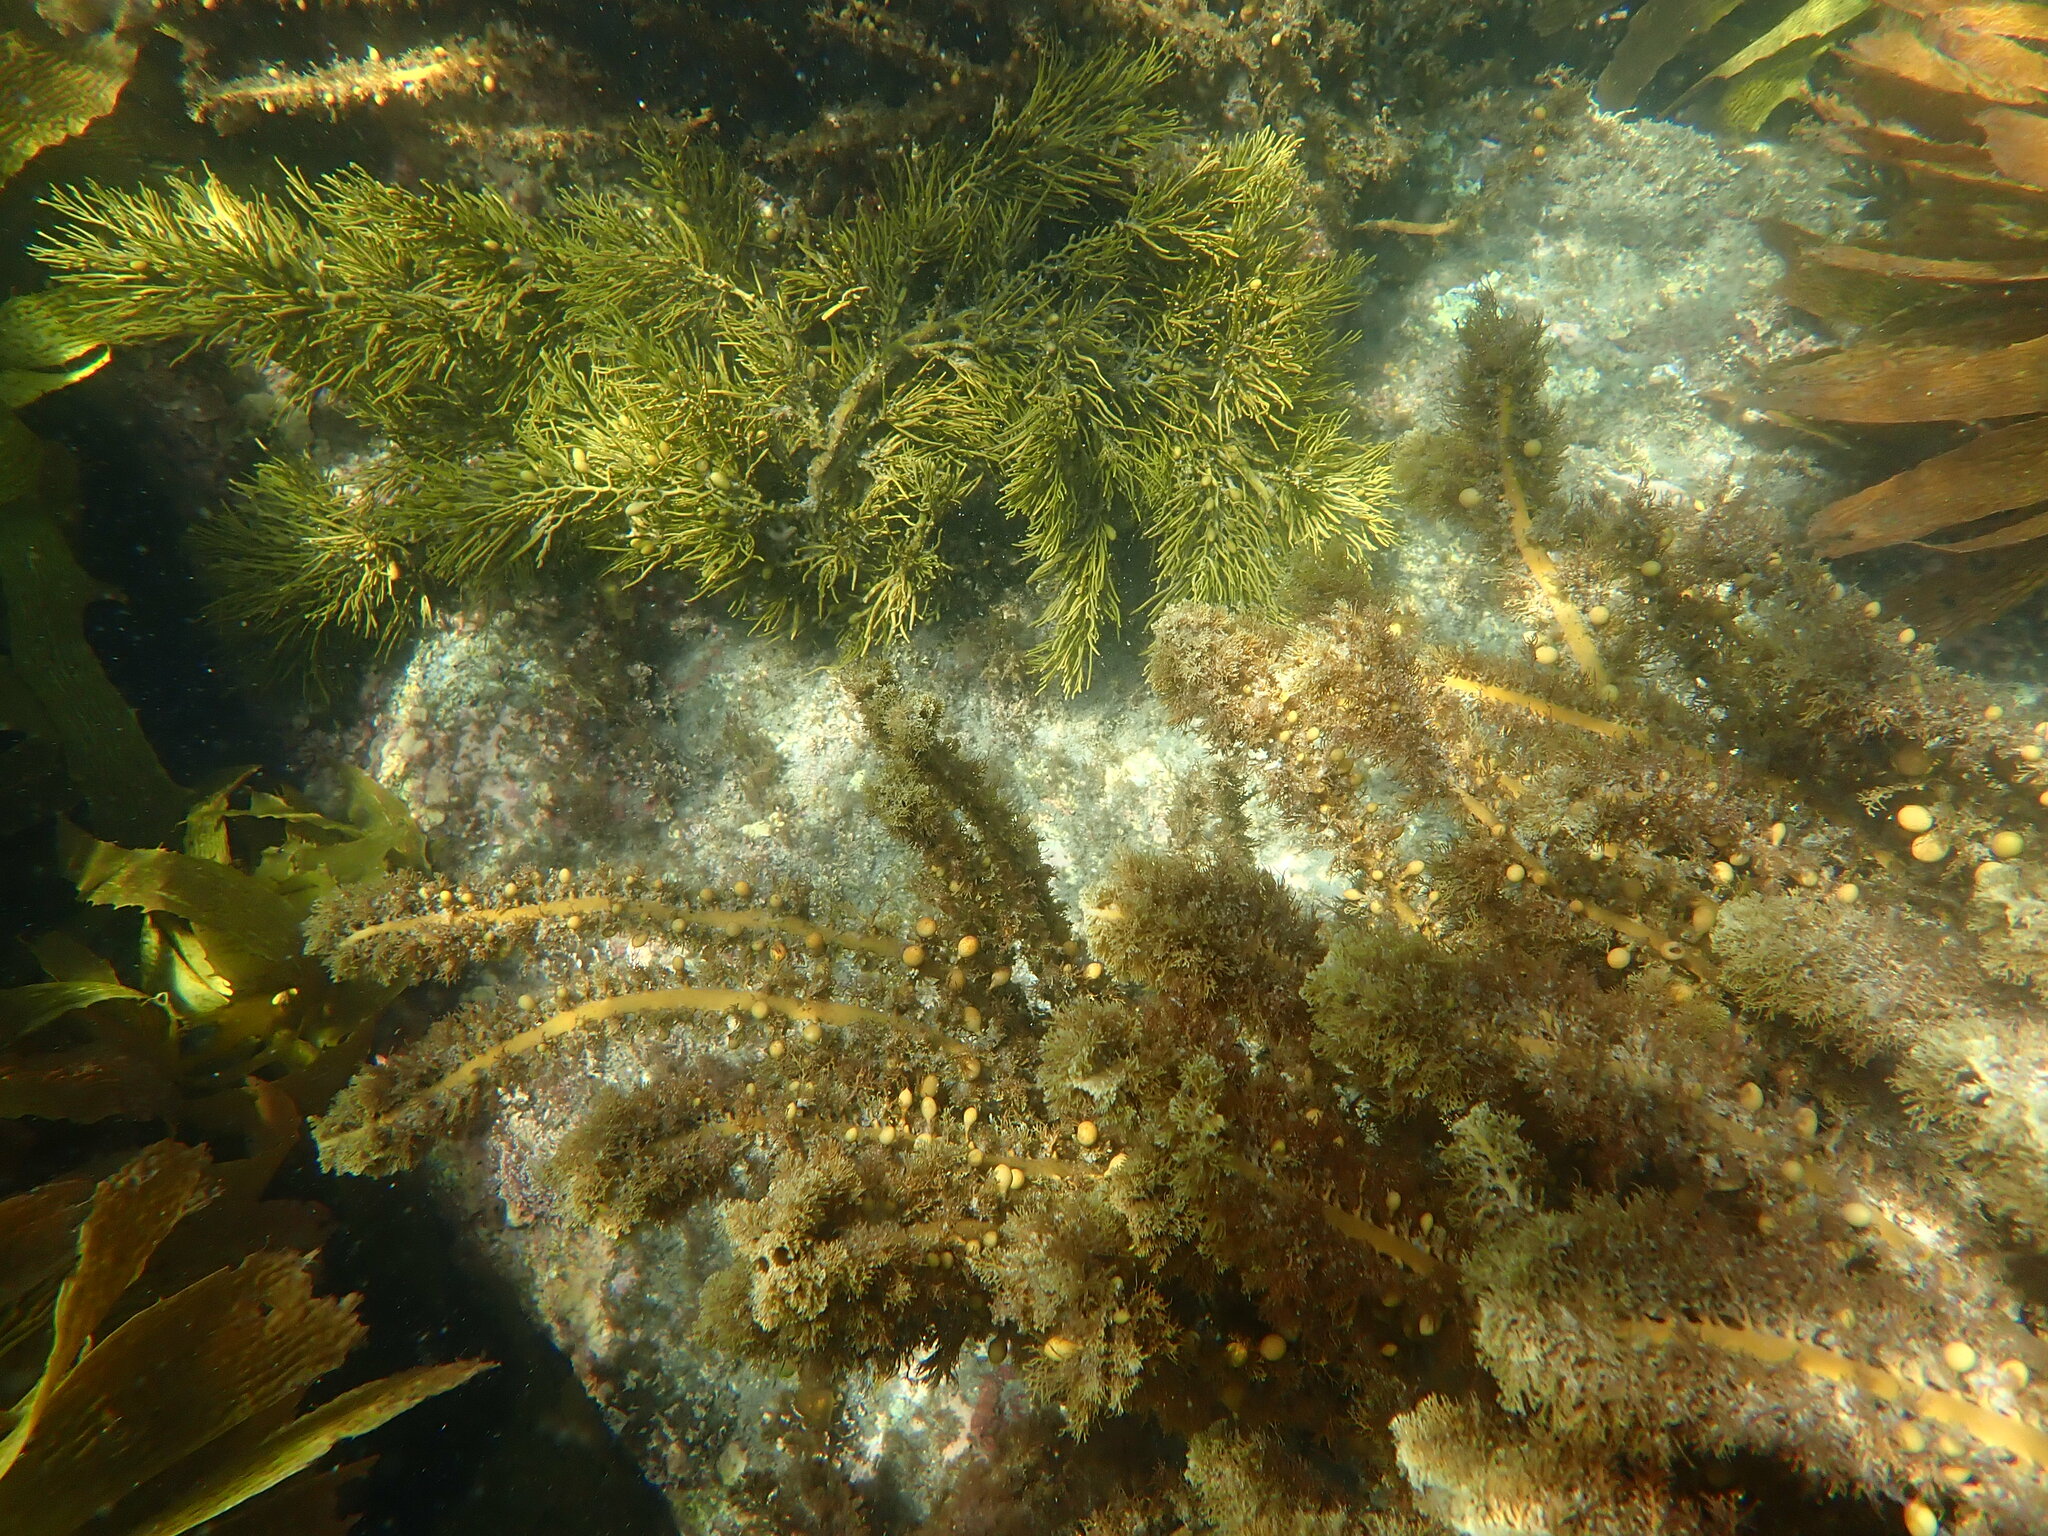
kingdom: Chromista
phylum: Ochrophyta
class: Phaeophyceae
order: Fucales
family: Sargassaceae
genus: Cystophora
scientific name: Cystophora retroflexa
